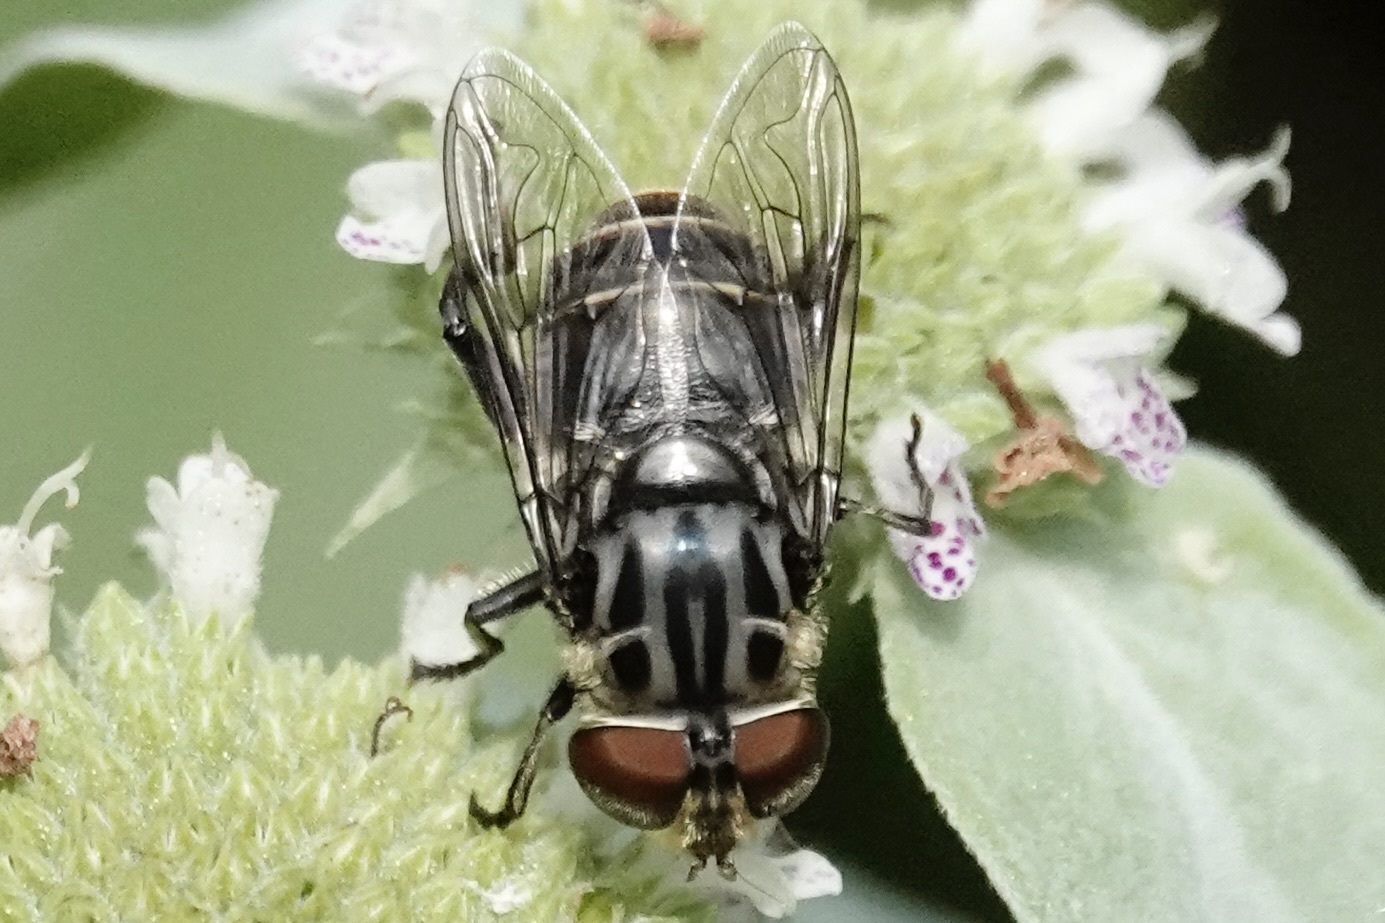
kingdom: Animalia
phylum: Arthropoda
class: Insecta
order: Diptera
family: Syrphidae
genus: Palpada
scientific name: Palpada furcata
